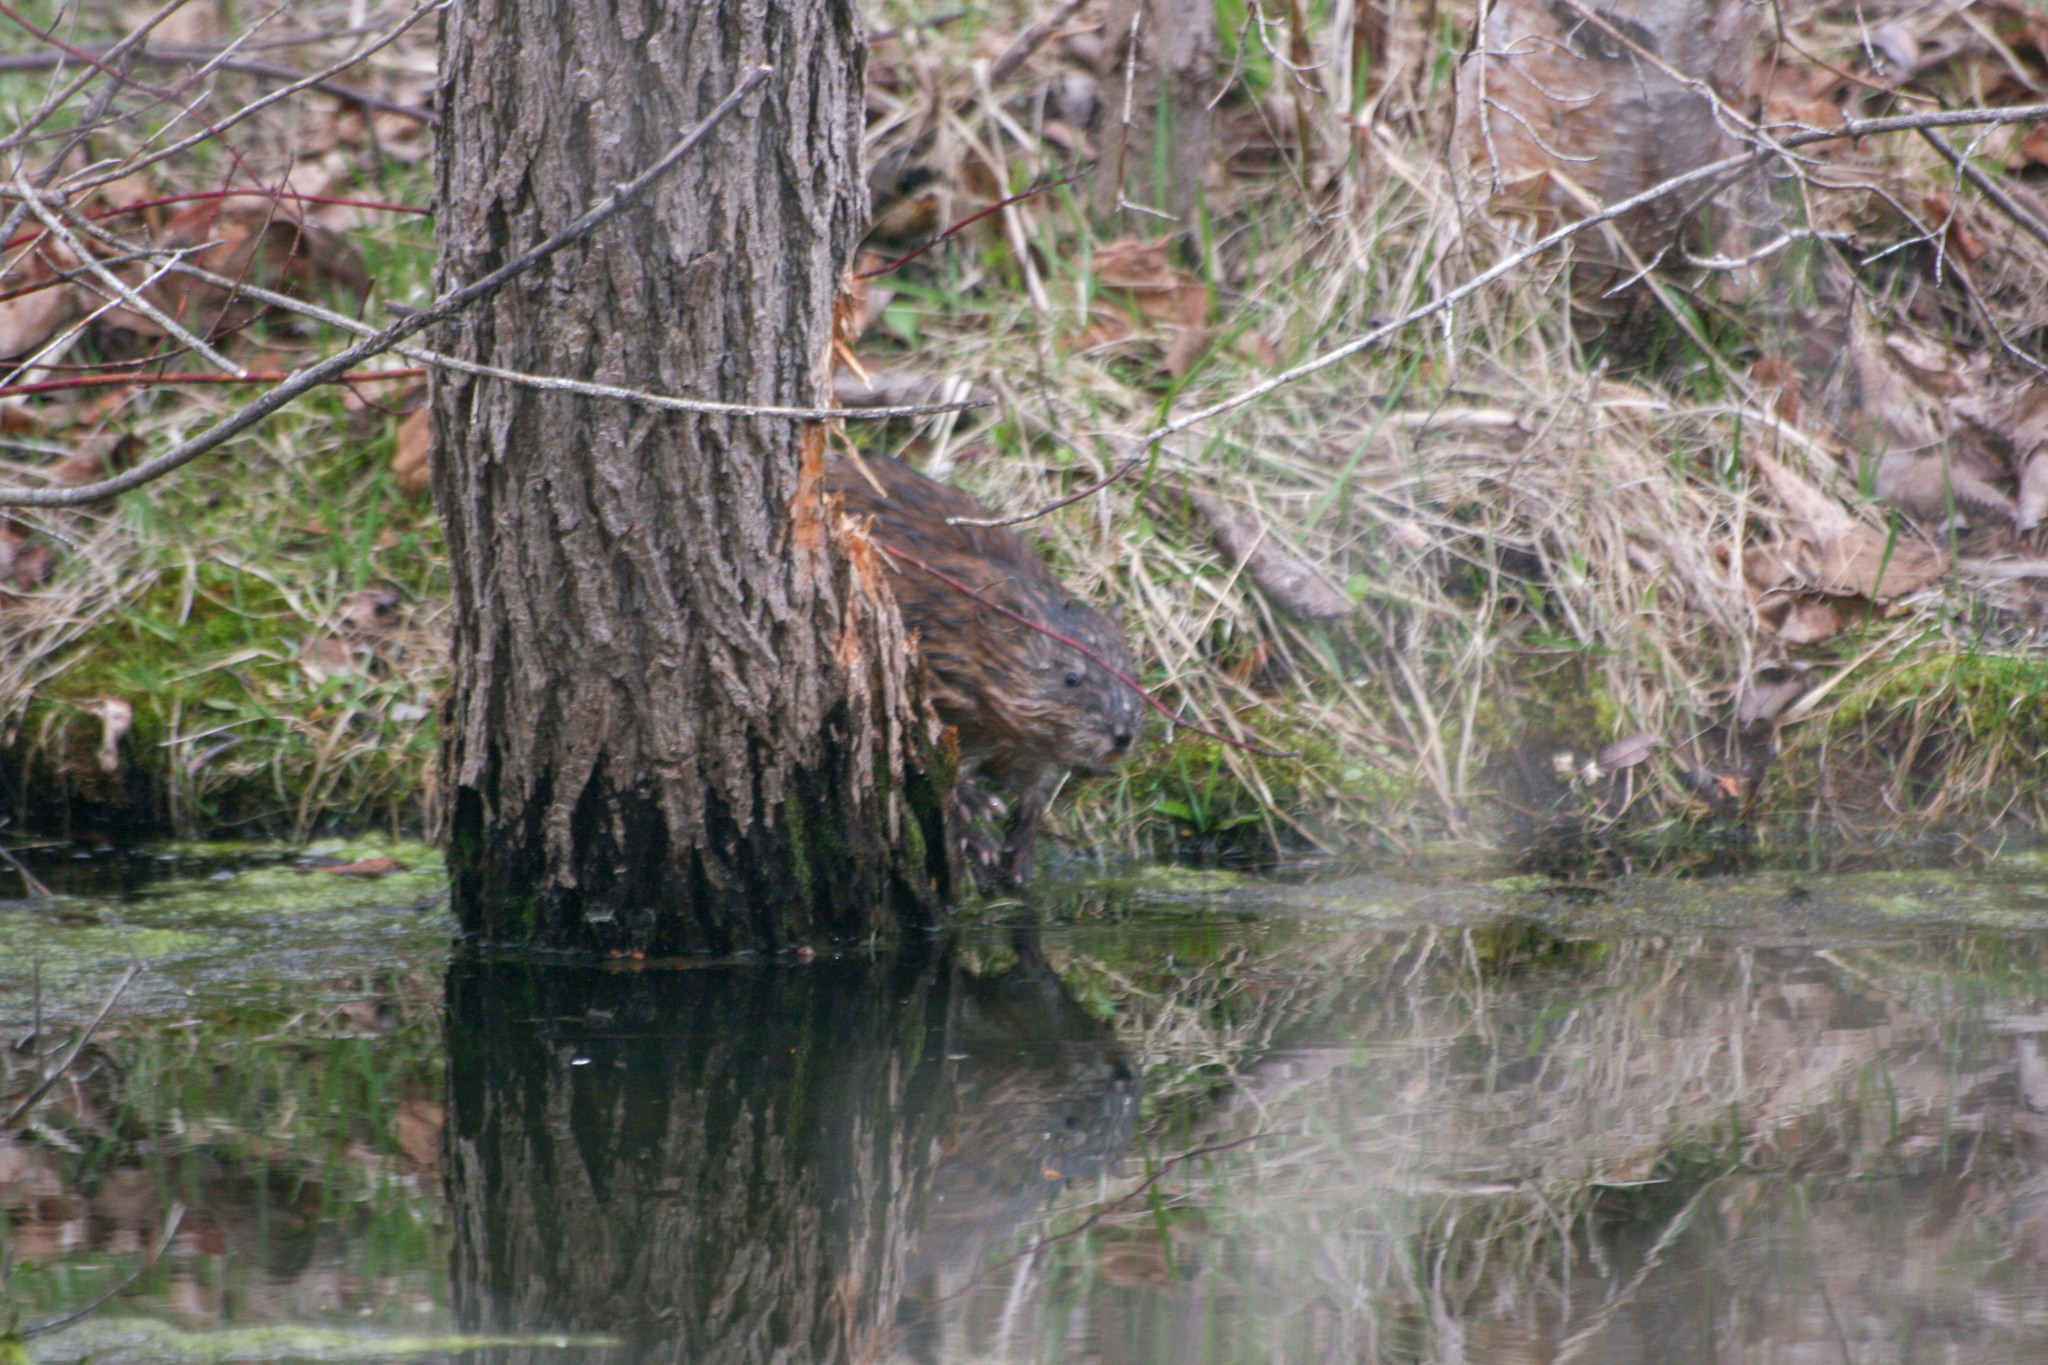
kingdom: Animalia
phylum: Chordata
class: Mammalia
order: Rodentia
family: Castoridae
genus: Castor
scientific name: Castor canadensis
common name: American beaver
